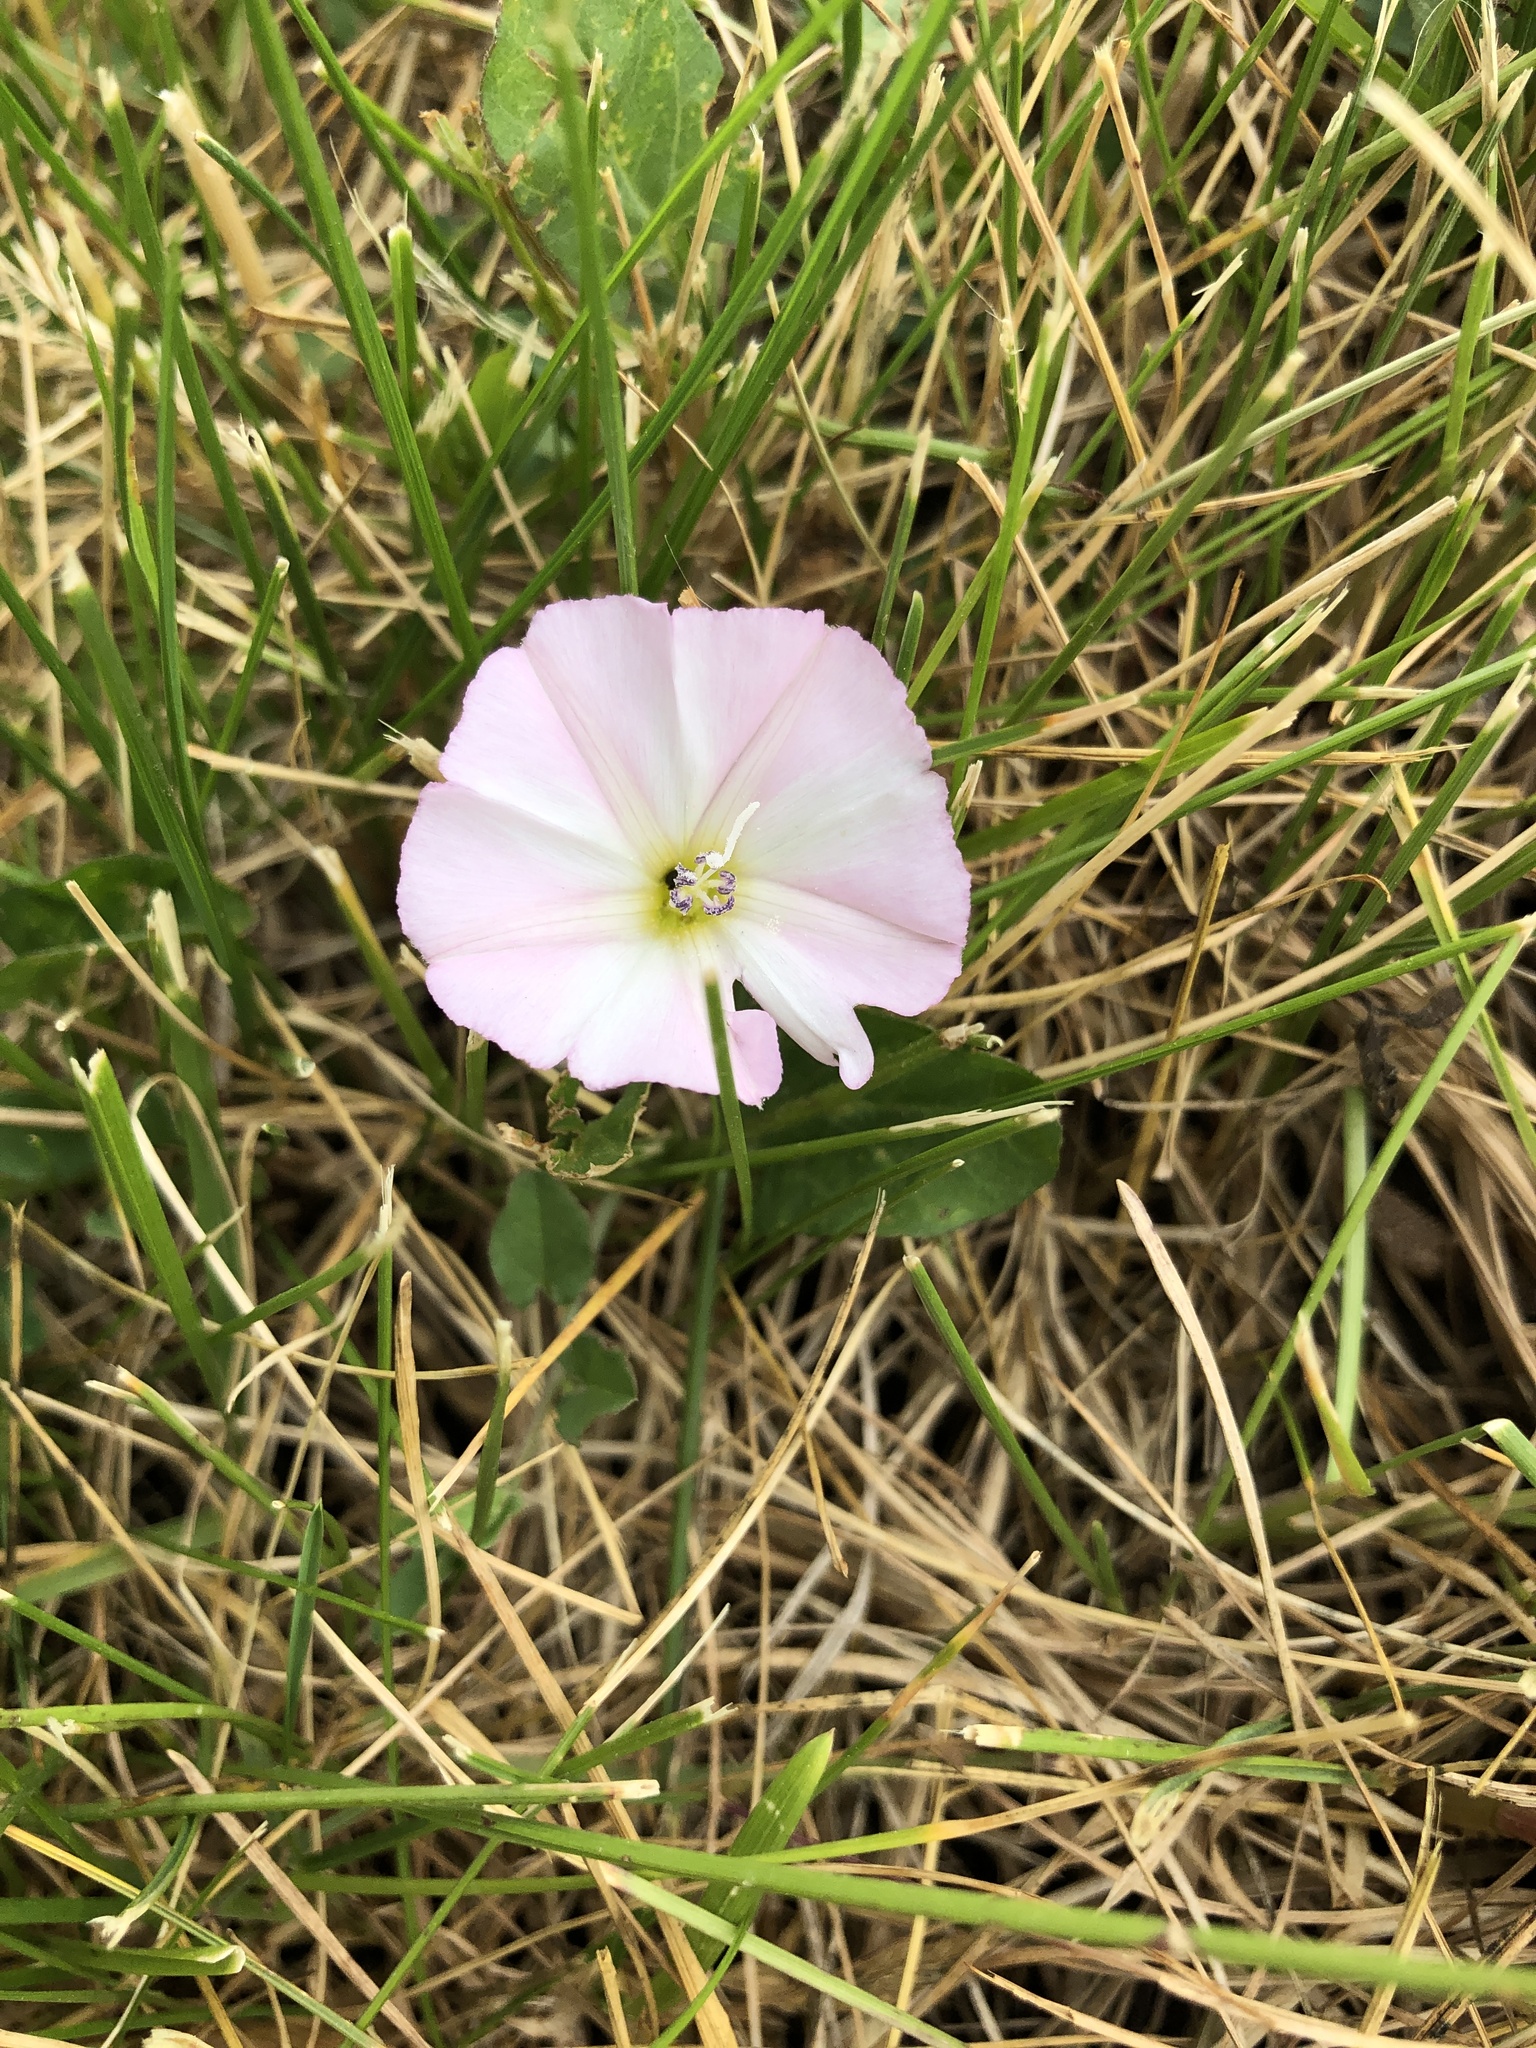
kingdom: Plantae
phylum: Tracheophyta
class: Magnoliopsida
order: Solanales
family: Convolvulaceae
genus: Convolvulus
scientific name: Convolvulus arvensis
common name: Field bindweed
